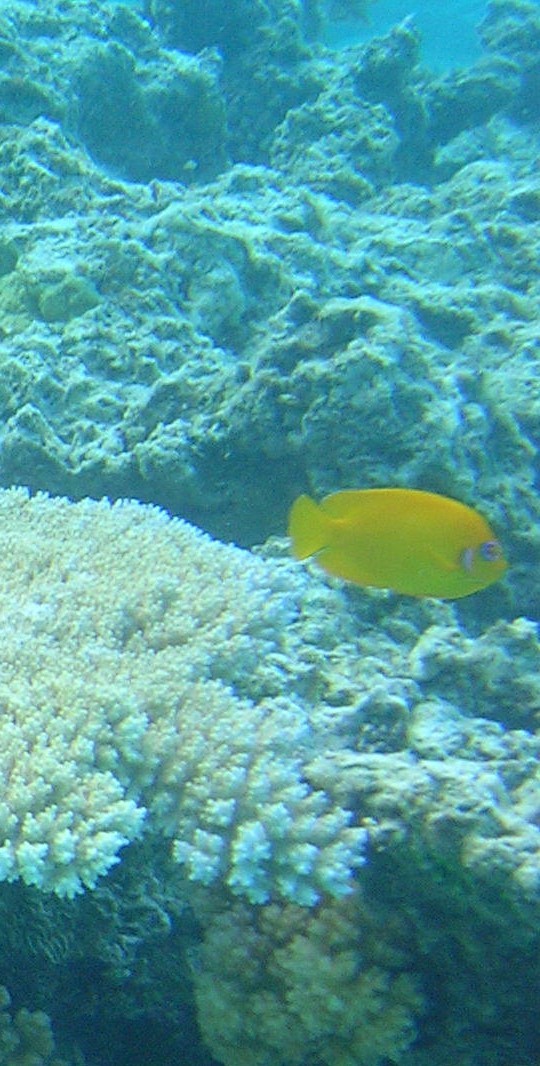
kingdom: Animalia
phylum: Chordata
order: Perciformes
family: Pomacanthidae
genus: Centropyge
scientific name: Centropyge flavissima
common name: Lemonpeel angelfish
